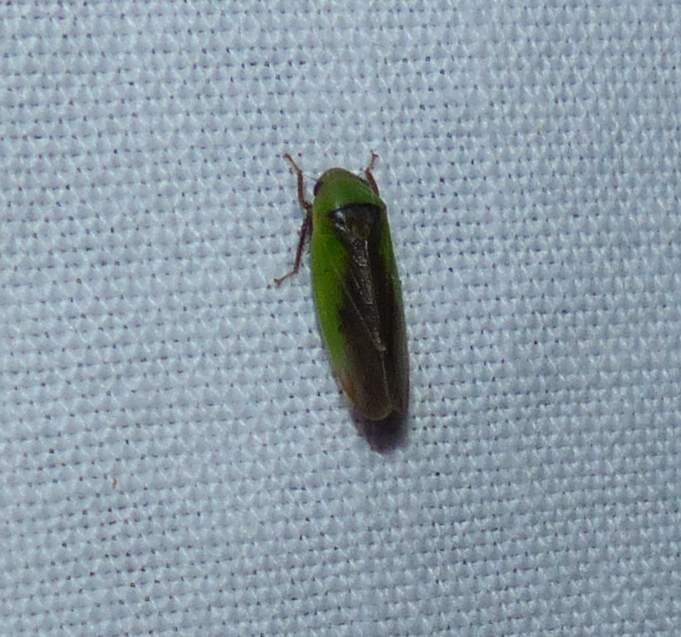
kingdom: Animalia
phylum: Arthropoda
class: Insecta
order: Hemiptera
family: Cicadellidae
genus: Ponana
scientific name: Ponana pectoralis
